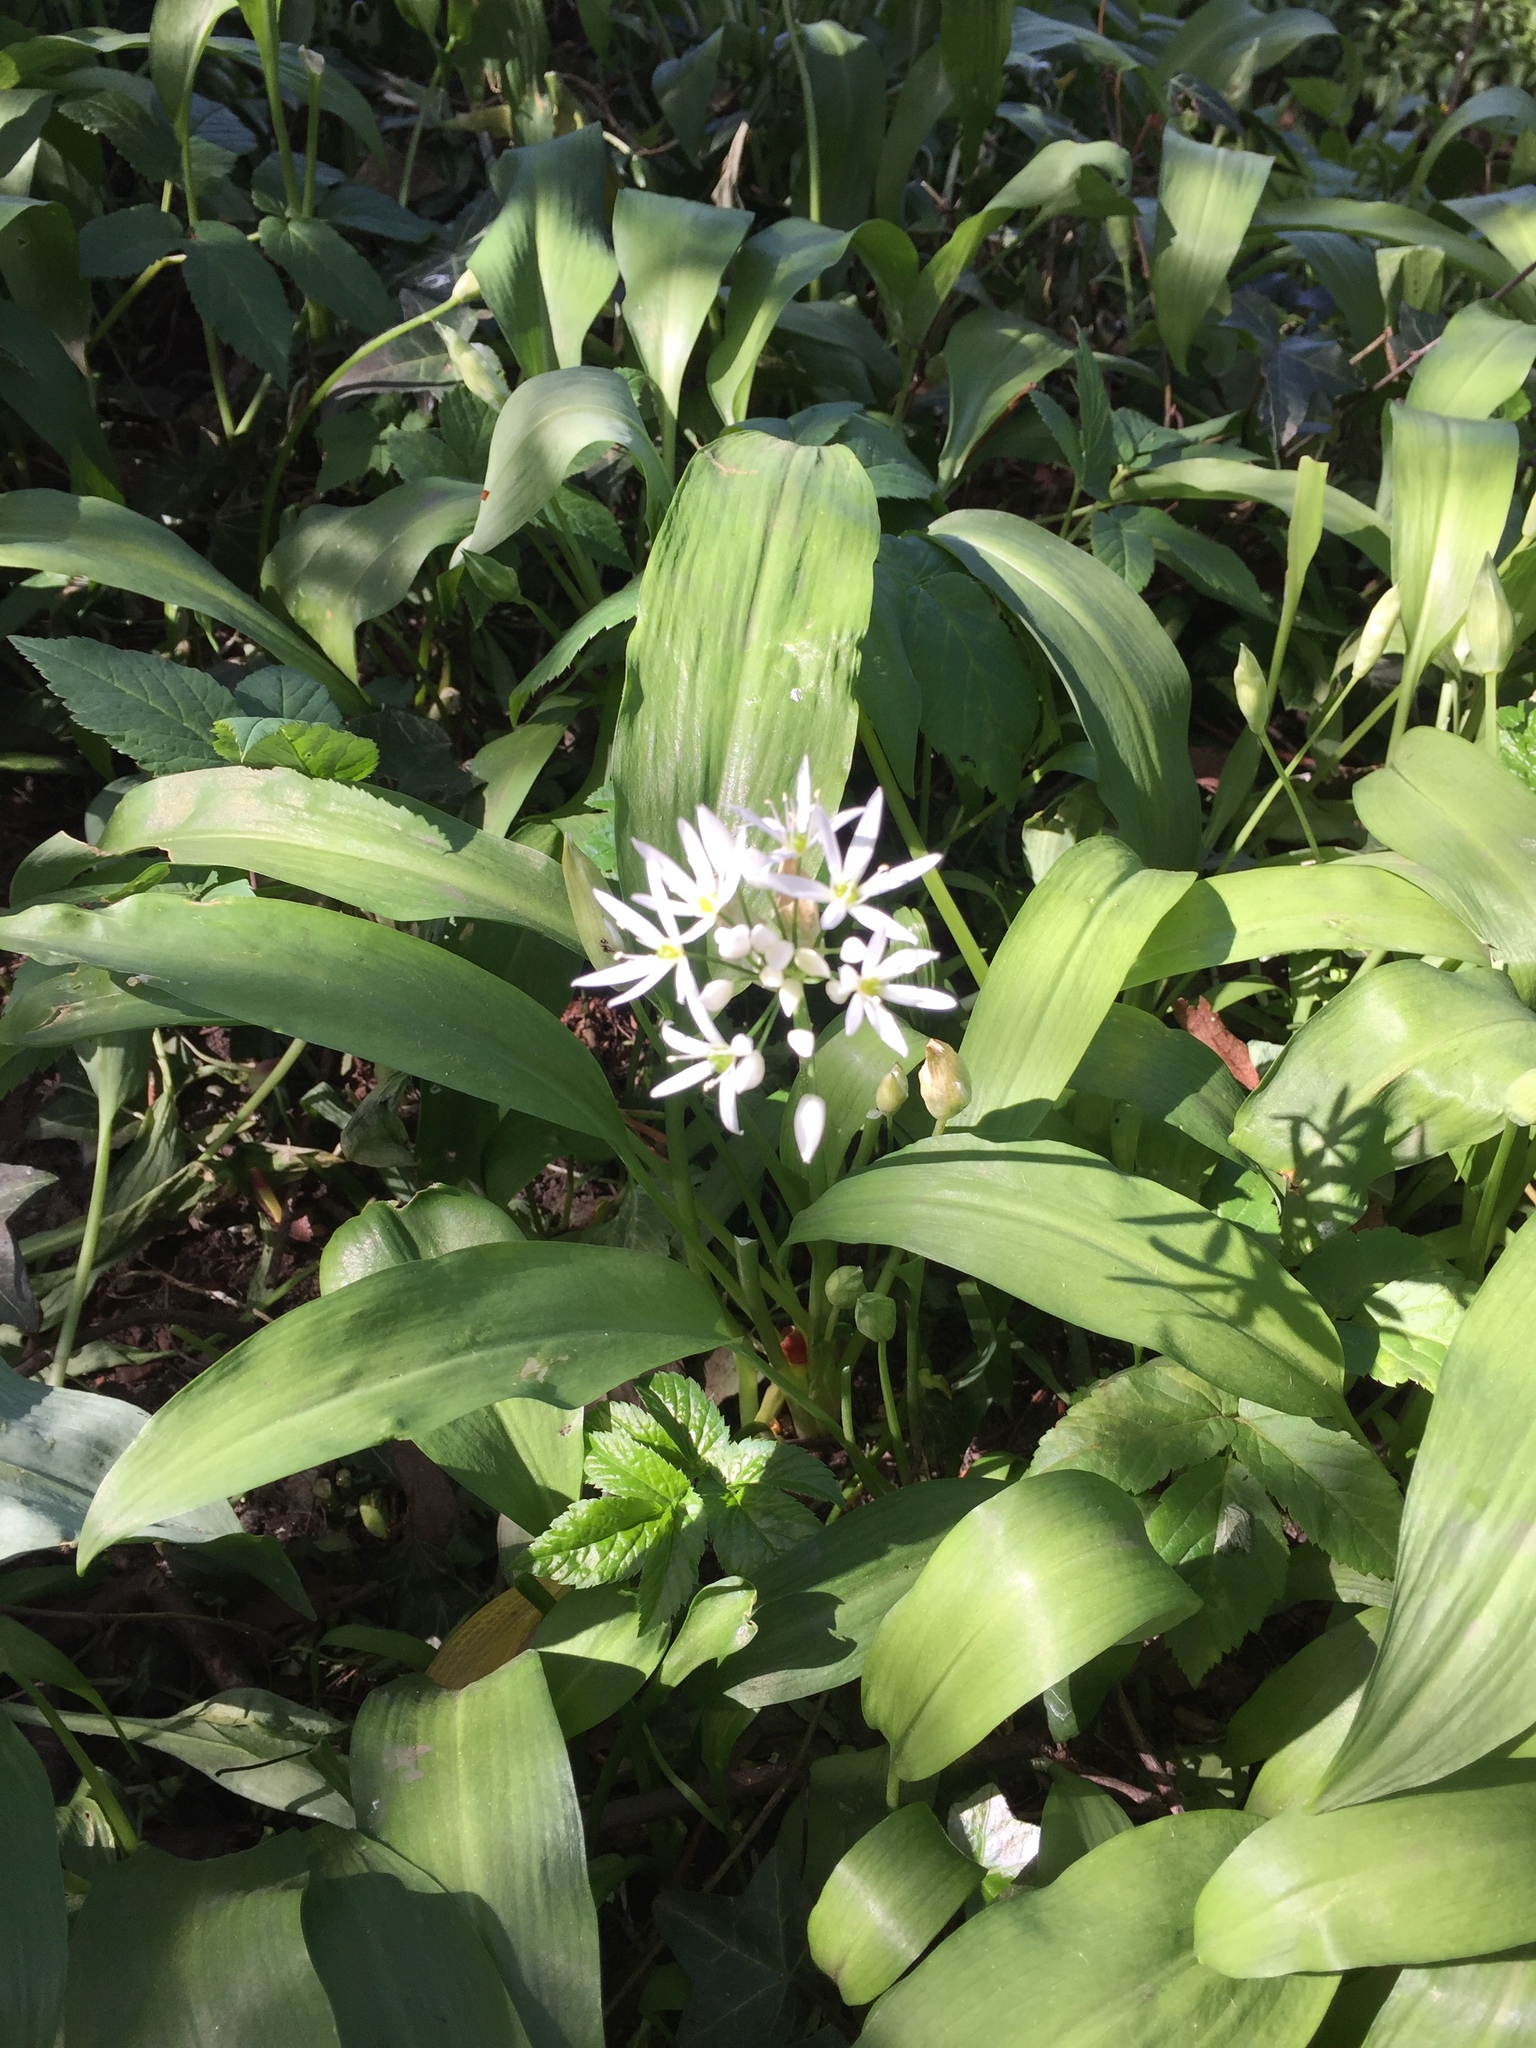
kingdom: Plantae
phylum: Tracheophyta
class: Liliopsida
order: Asparagales
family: Amaryllidaceae
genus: Allium
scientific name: Allium ursinum
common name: Ramsons
